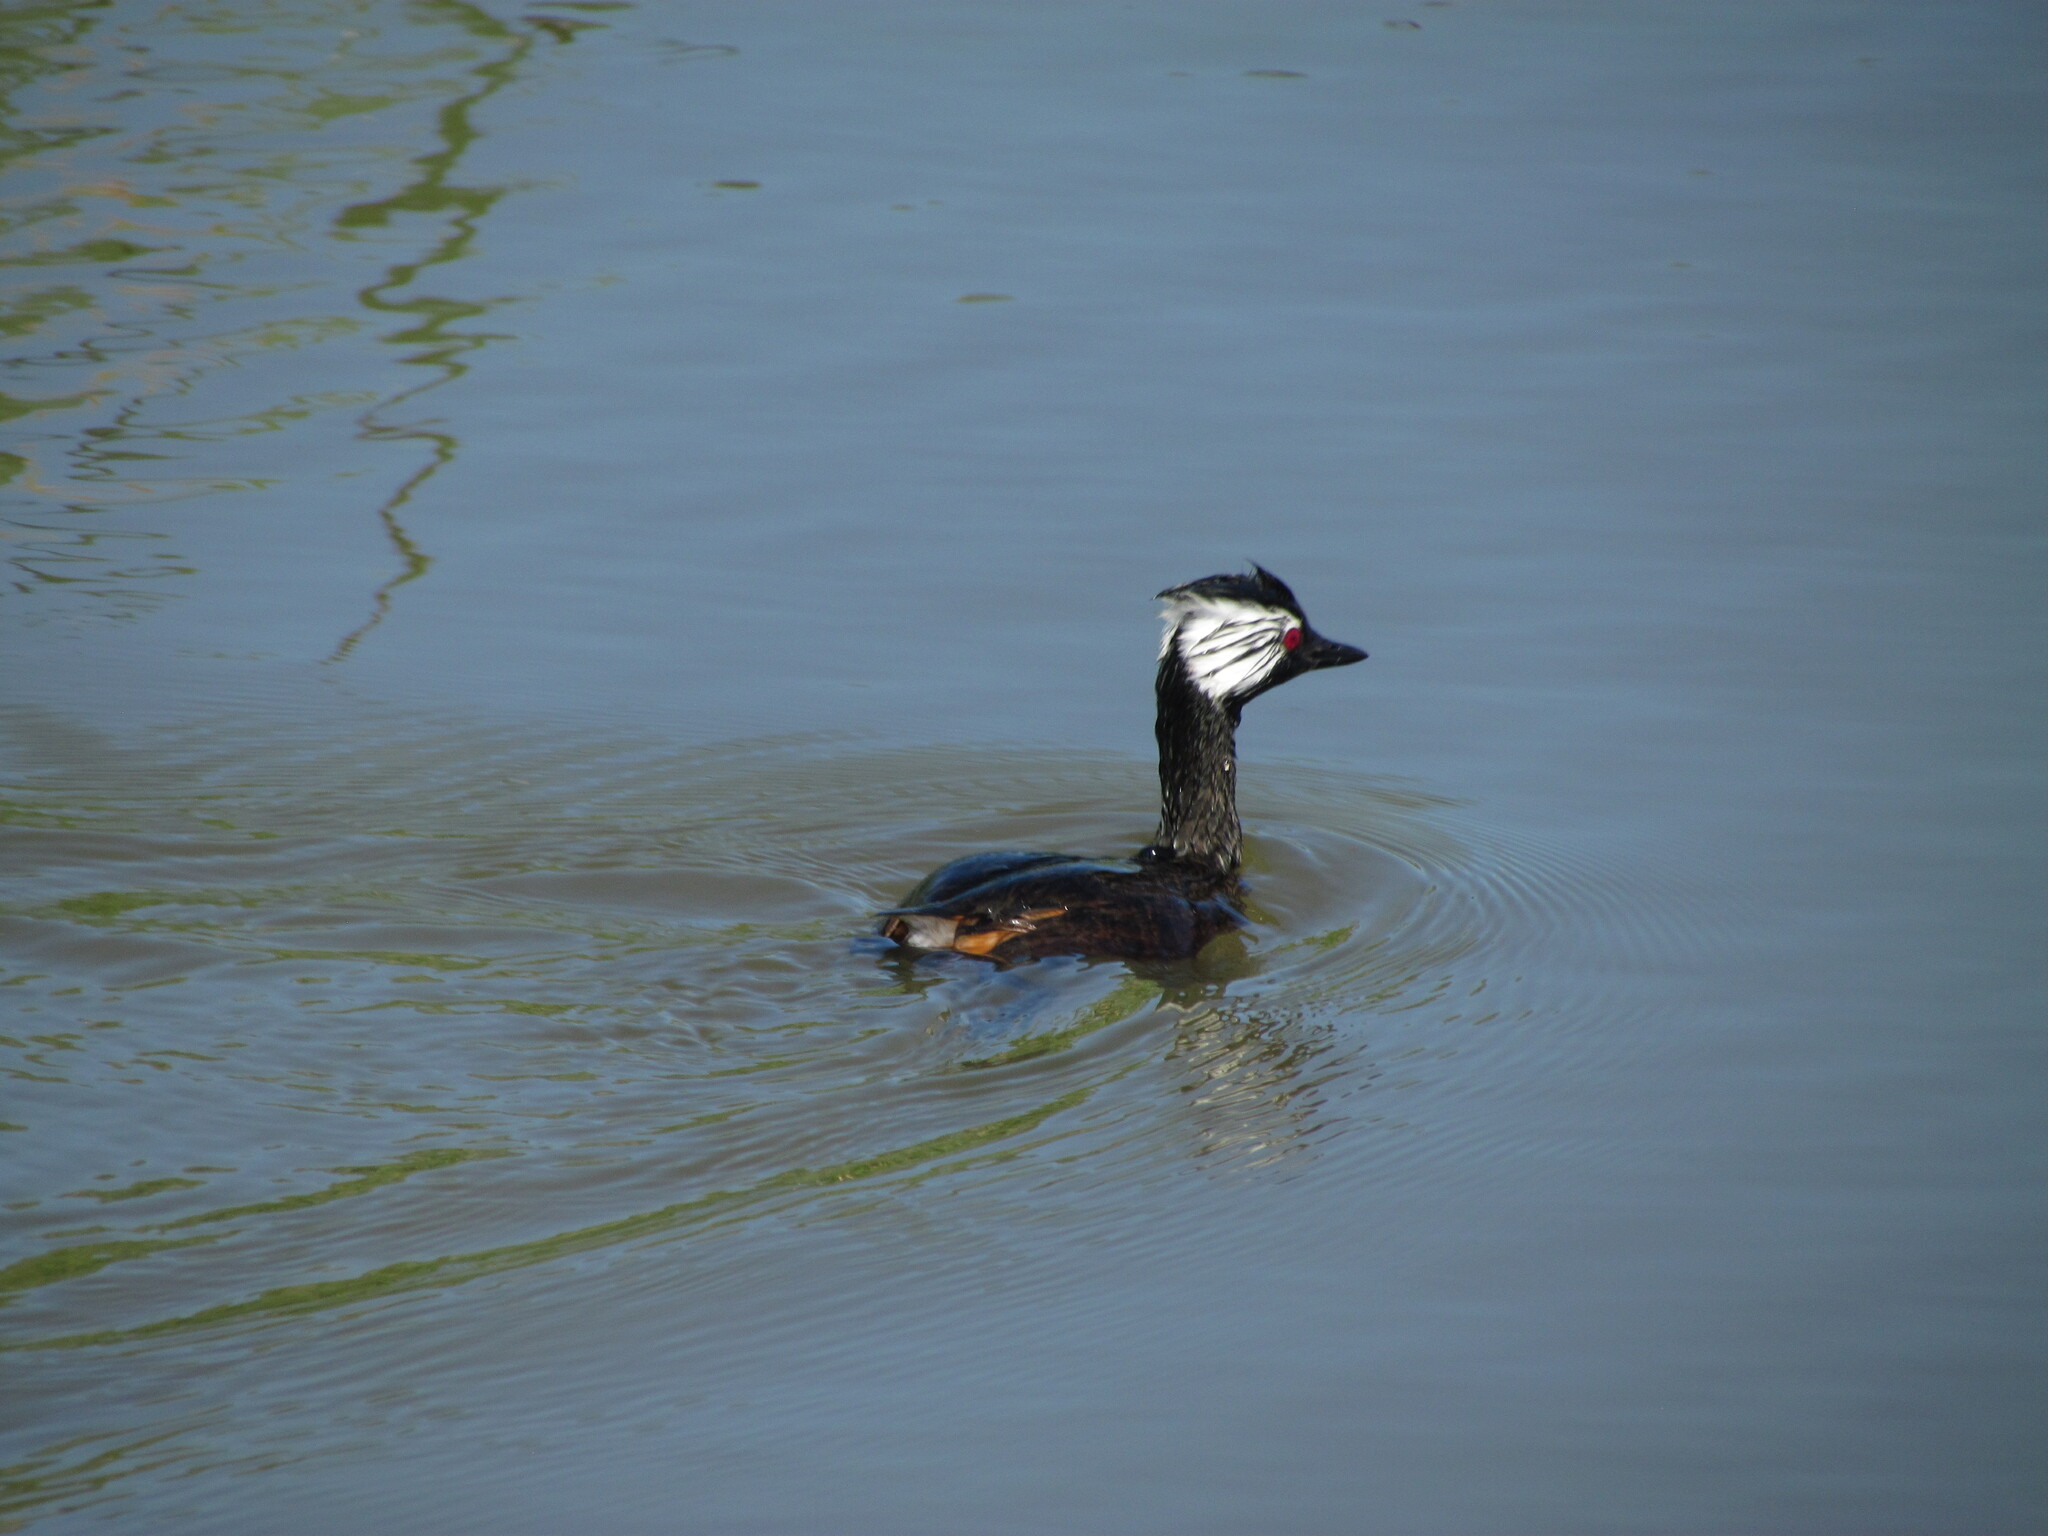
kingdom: Animalia
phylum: Chordata
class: Aves
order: Podicipediformes
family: Podicipedidae
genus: Rollandia
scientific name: Rollandia rolland
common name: White-tufted grebe
